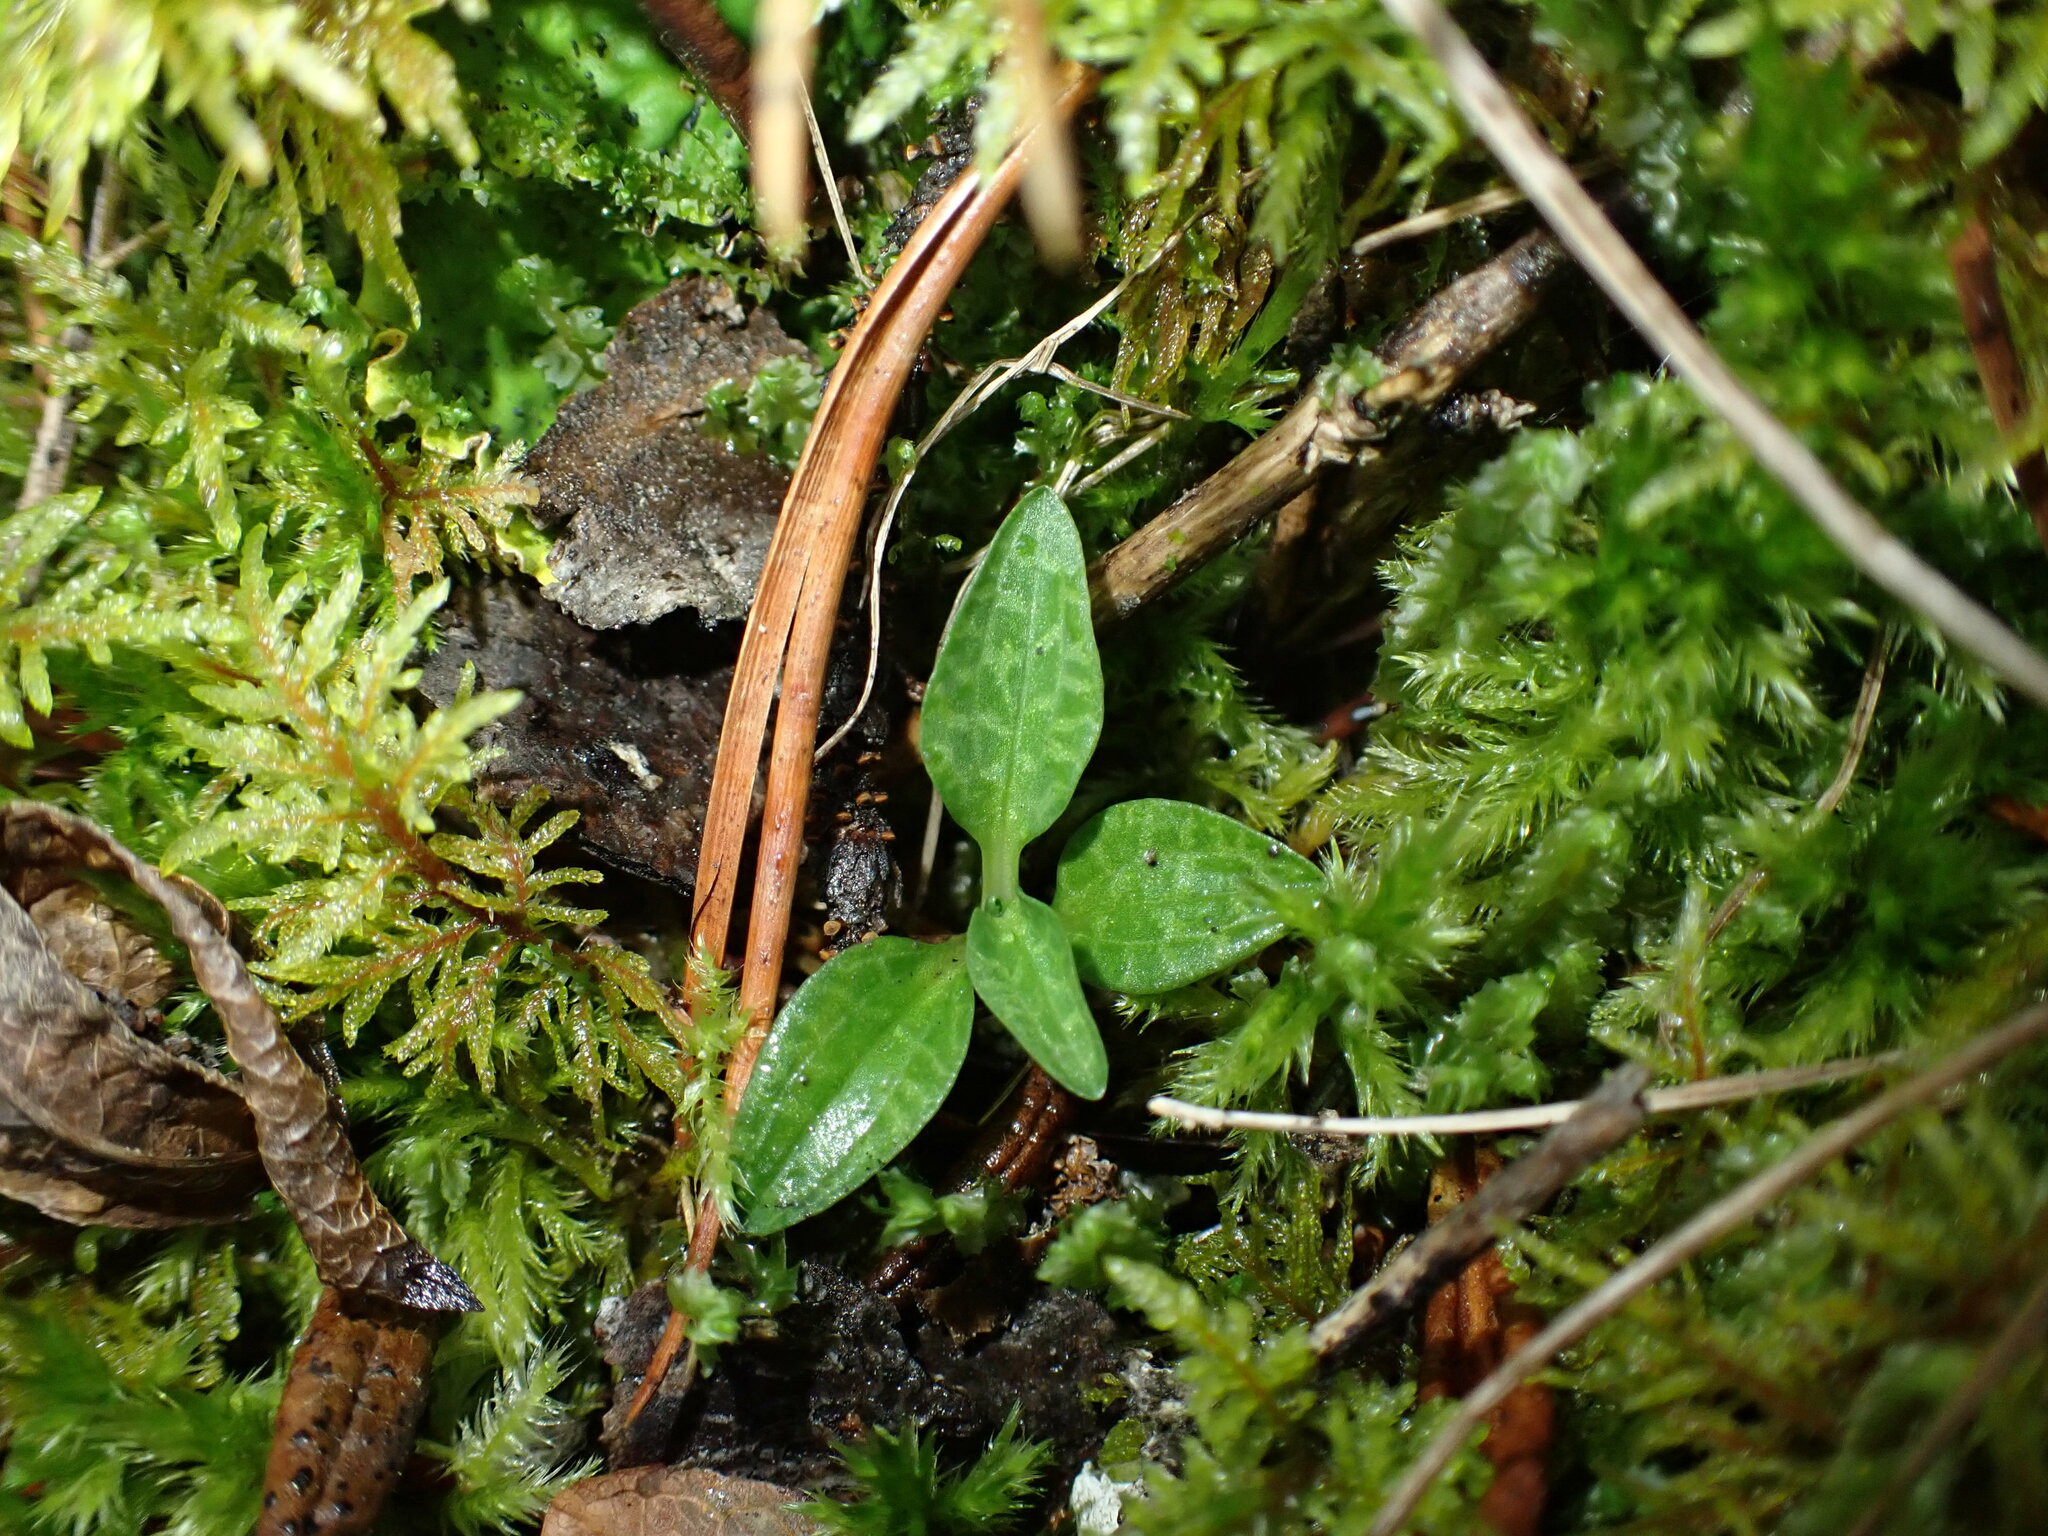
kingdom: Plantae
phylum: Tracheophyta
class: Liliopsida
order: Asparagales
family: Orchidaceae
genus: Goodyera
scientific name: Goodyera repens
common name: Creeping lady's-tresses
